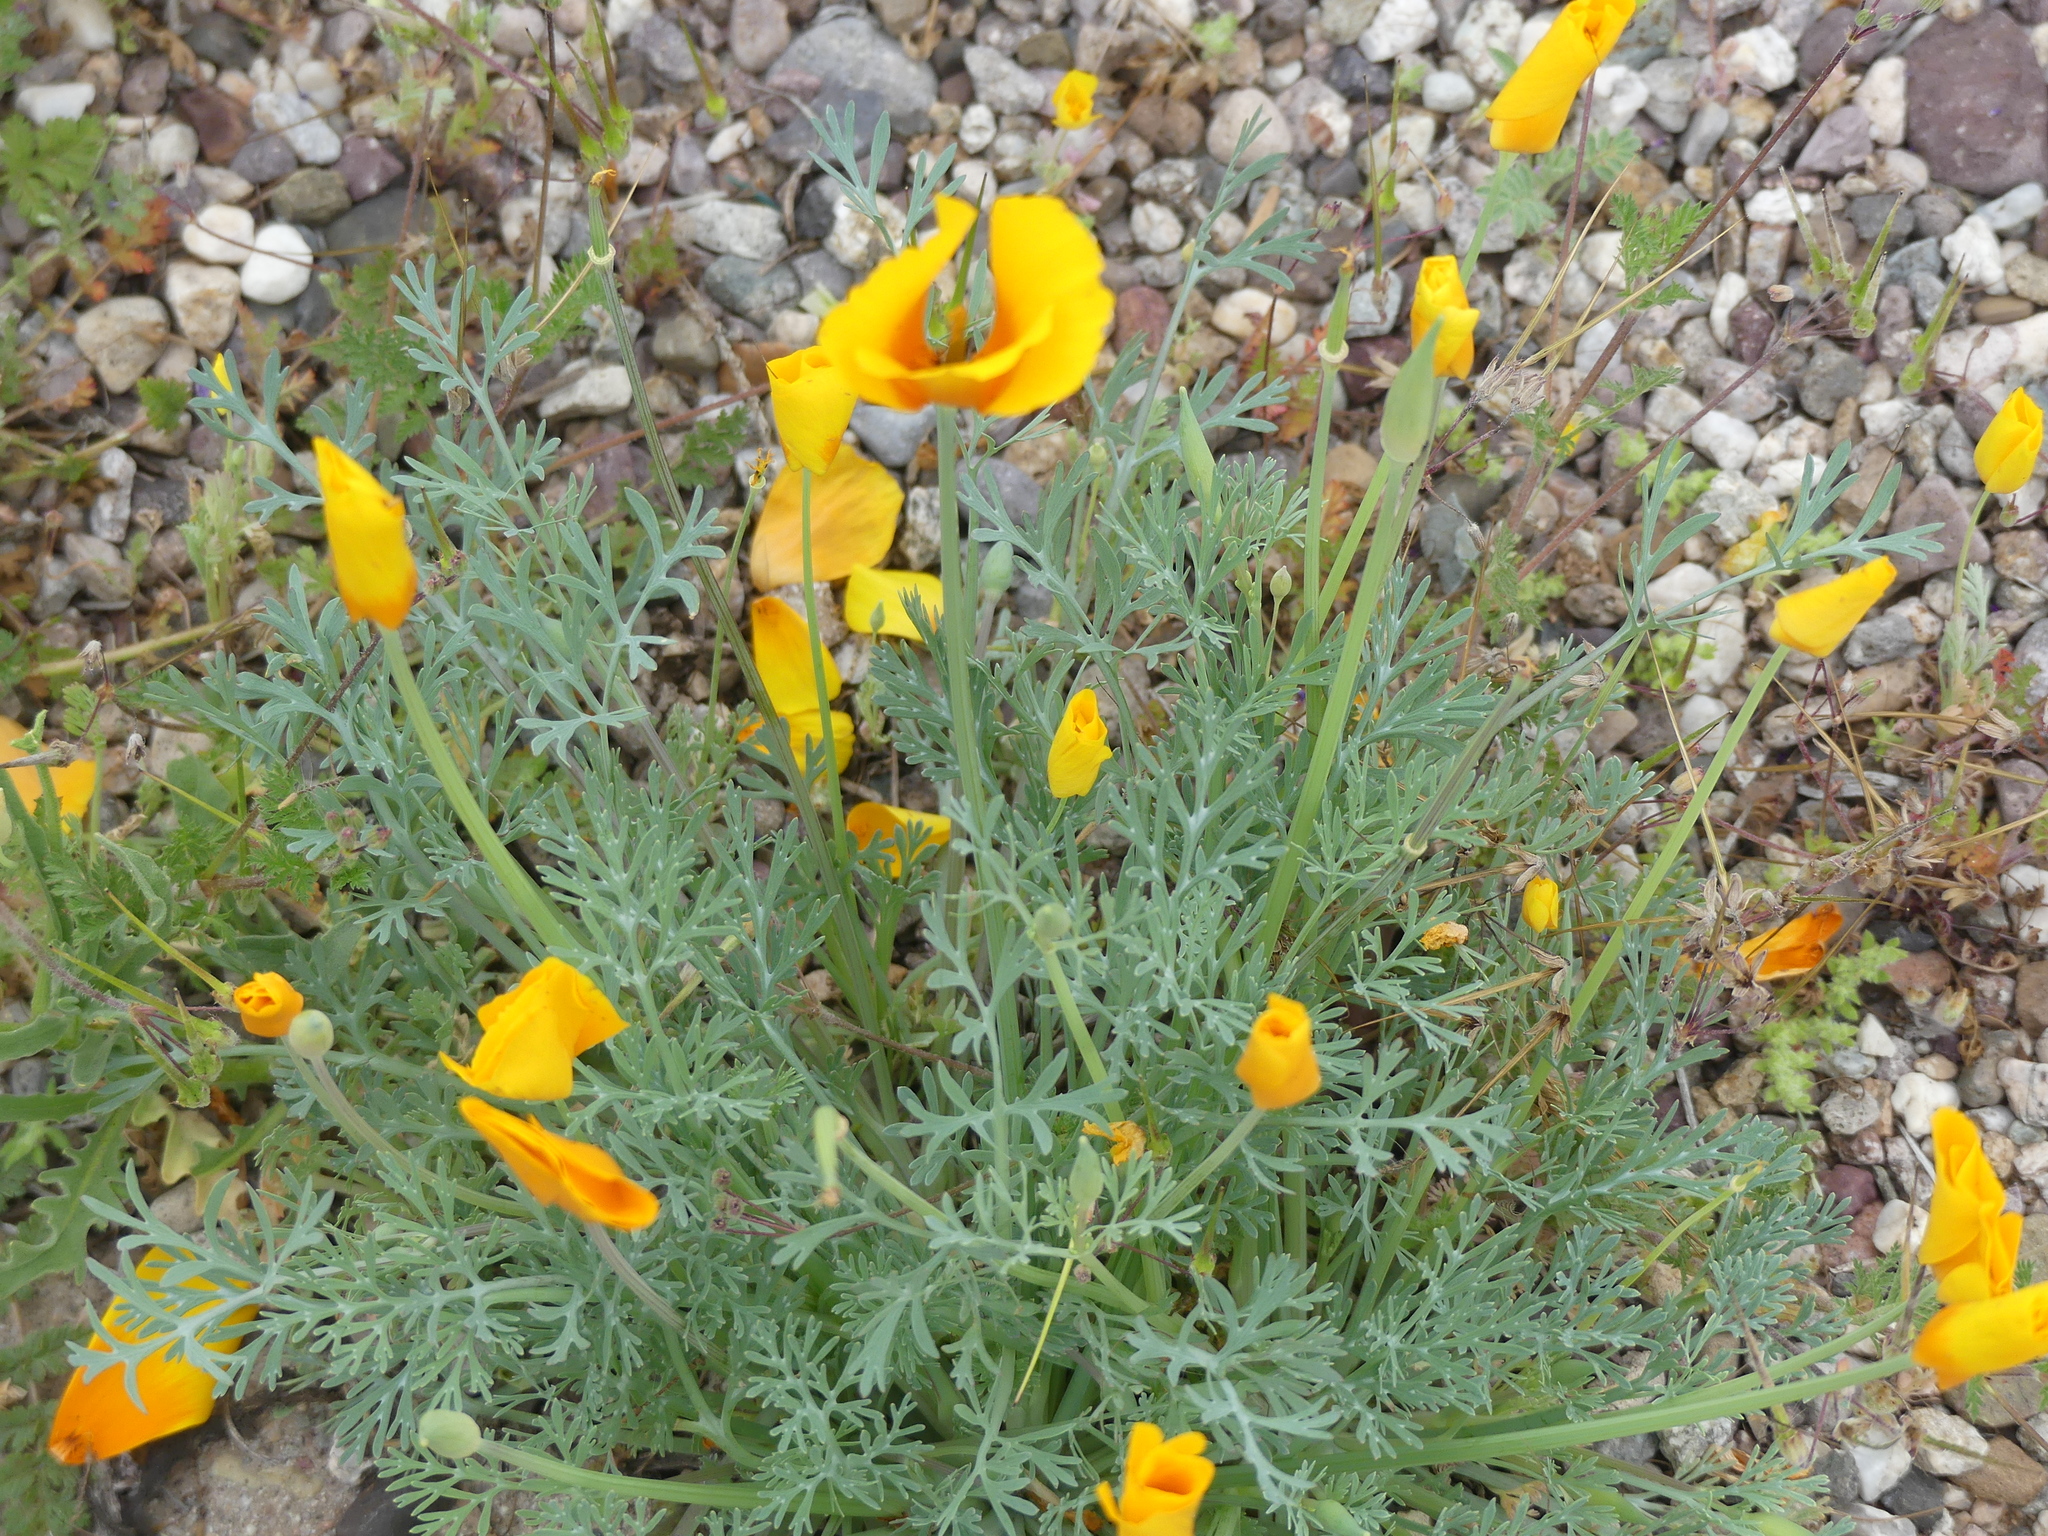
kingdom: Plantae
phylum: Tracheophyta
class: Magnoliopsida
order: Ranunculales
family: Papaveraceae
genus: Eschscholzia
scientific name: Eschscholzia californica
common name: California poppy
